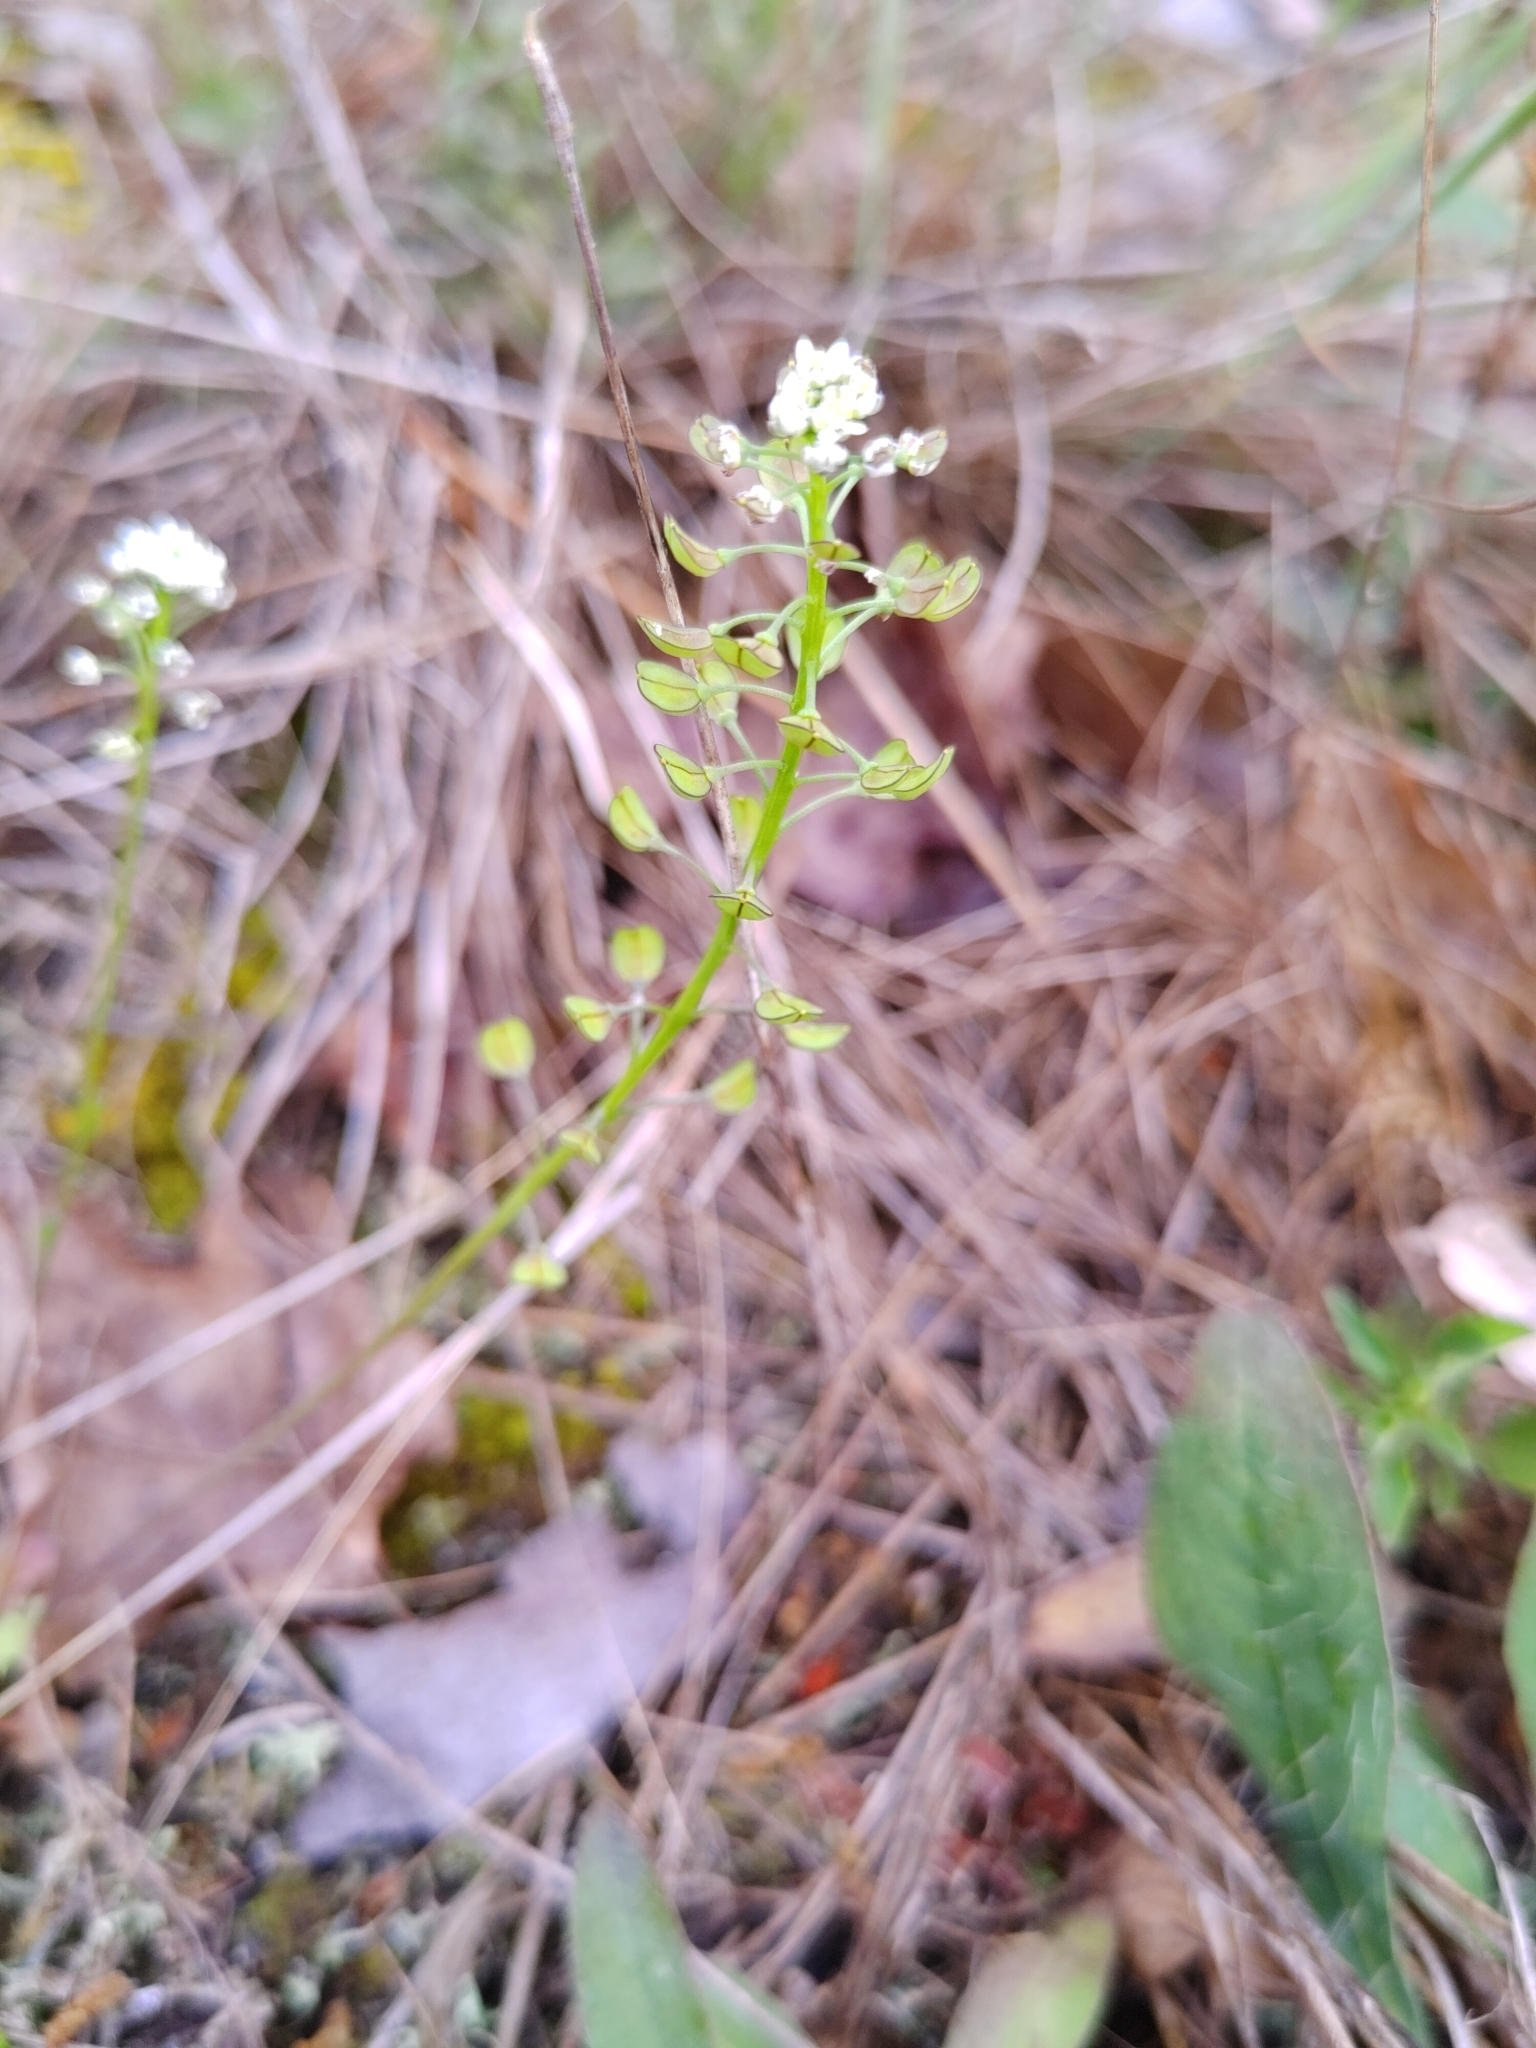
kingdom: Plantae
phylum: Tracheophyta
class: Magnoliopsida
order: Brassicales
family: Brassicaceae
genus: Teesdalia
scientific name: Teesdalia nudicaulis
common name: Shepherd's cress
